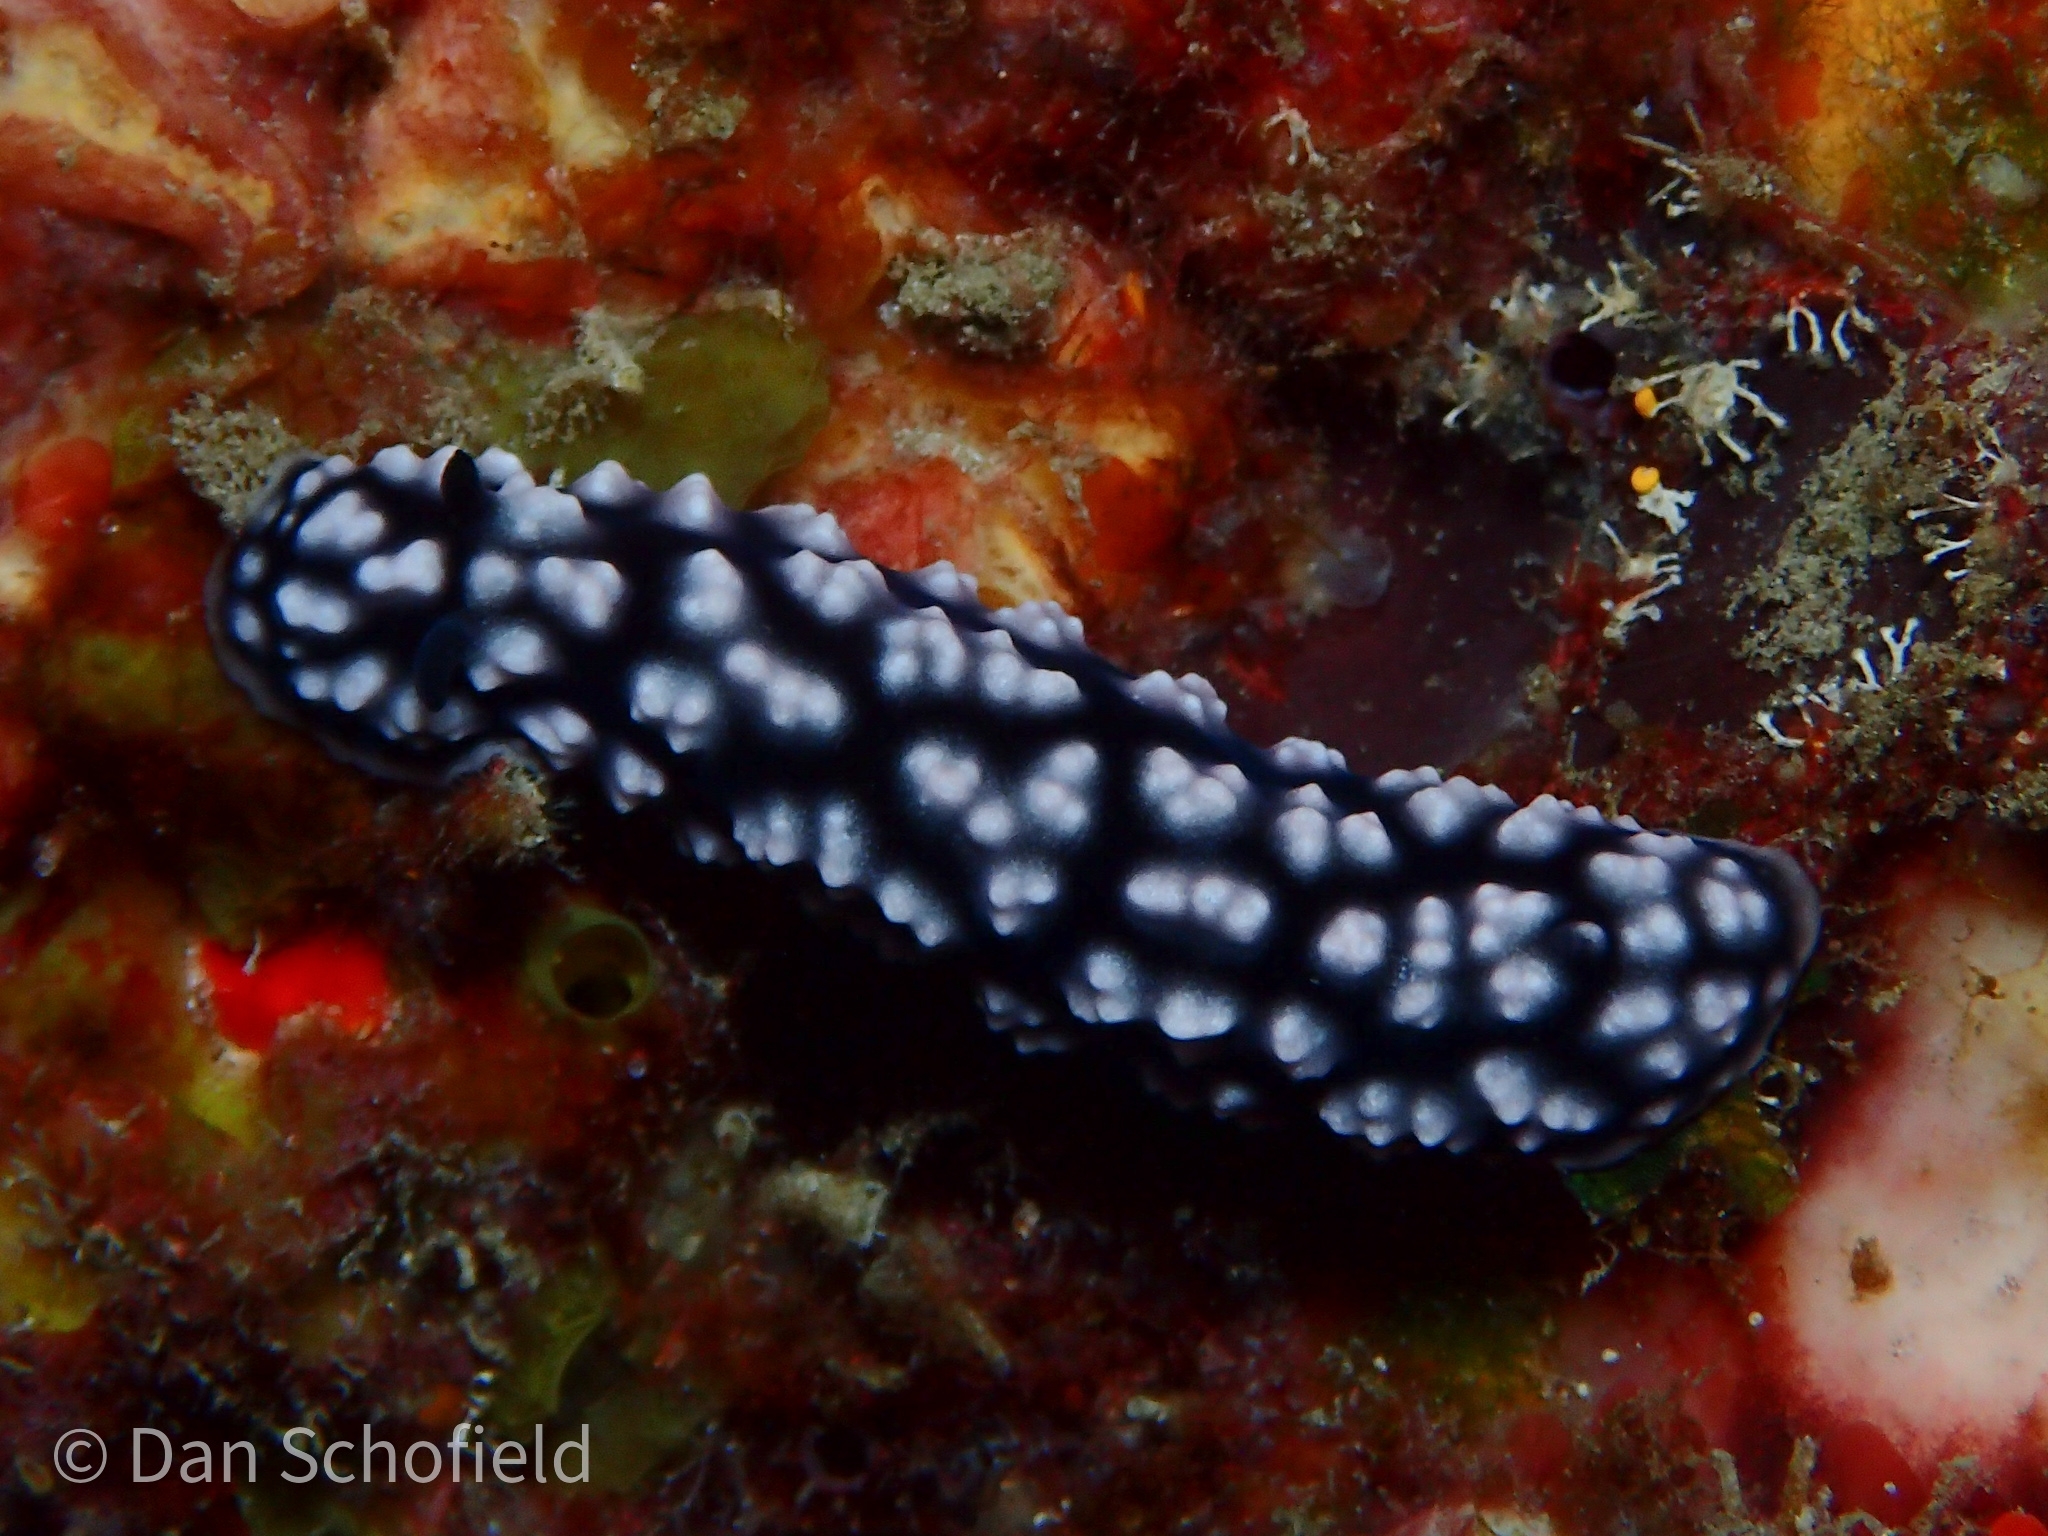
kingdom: Animalia
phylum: Mollusca
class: Gastropoda
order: Nudibranchia
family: Phyllidiidae
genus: Phyllidiella
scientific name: Phyllidiella pustulosa
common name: Pustular phyllidia
